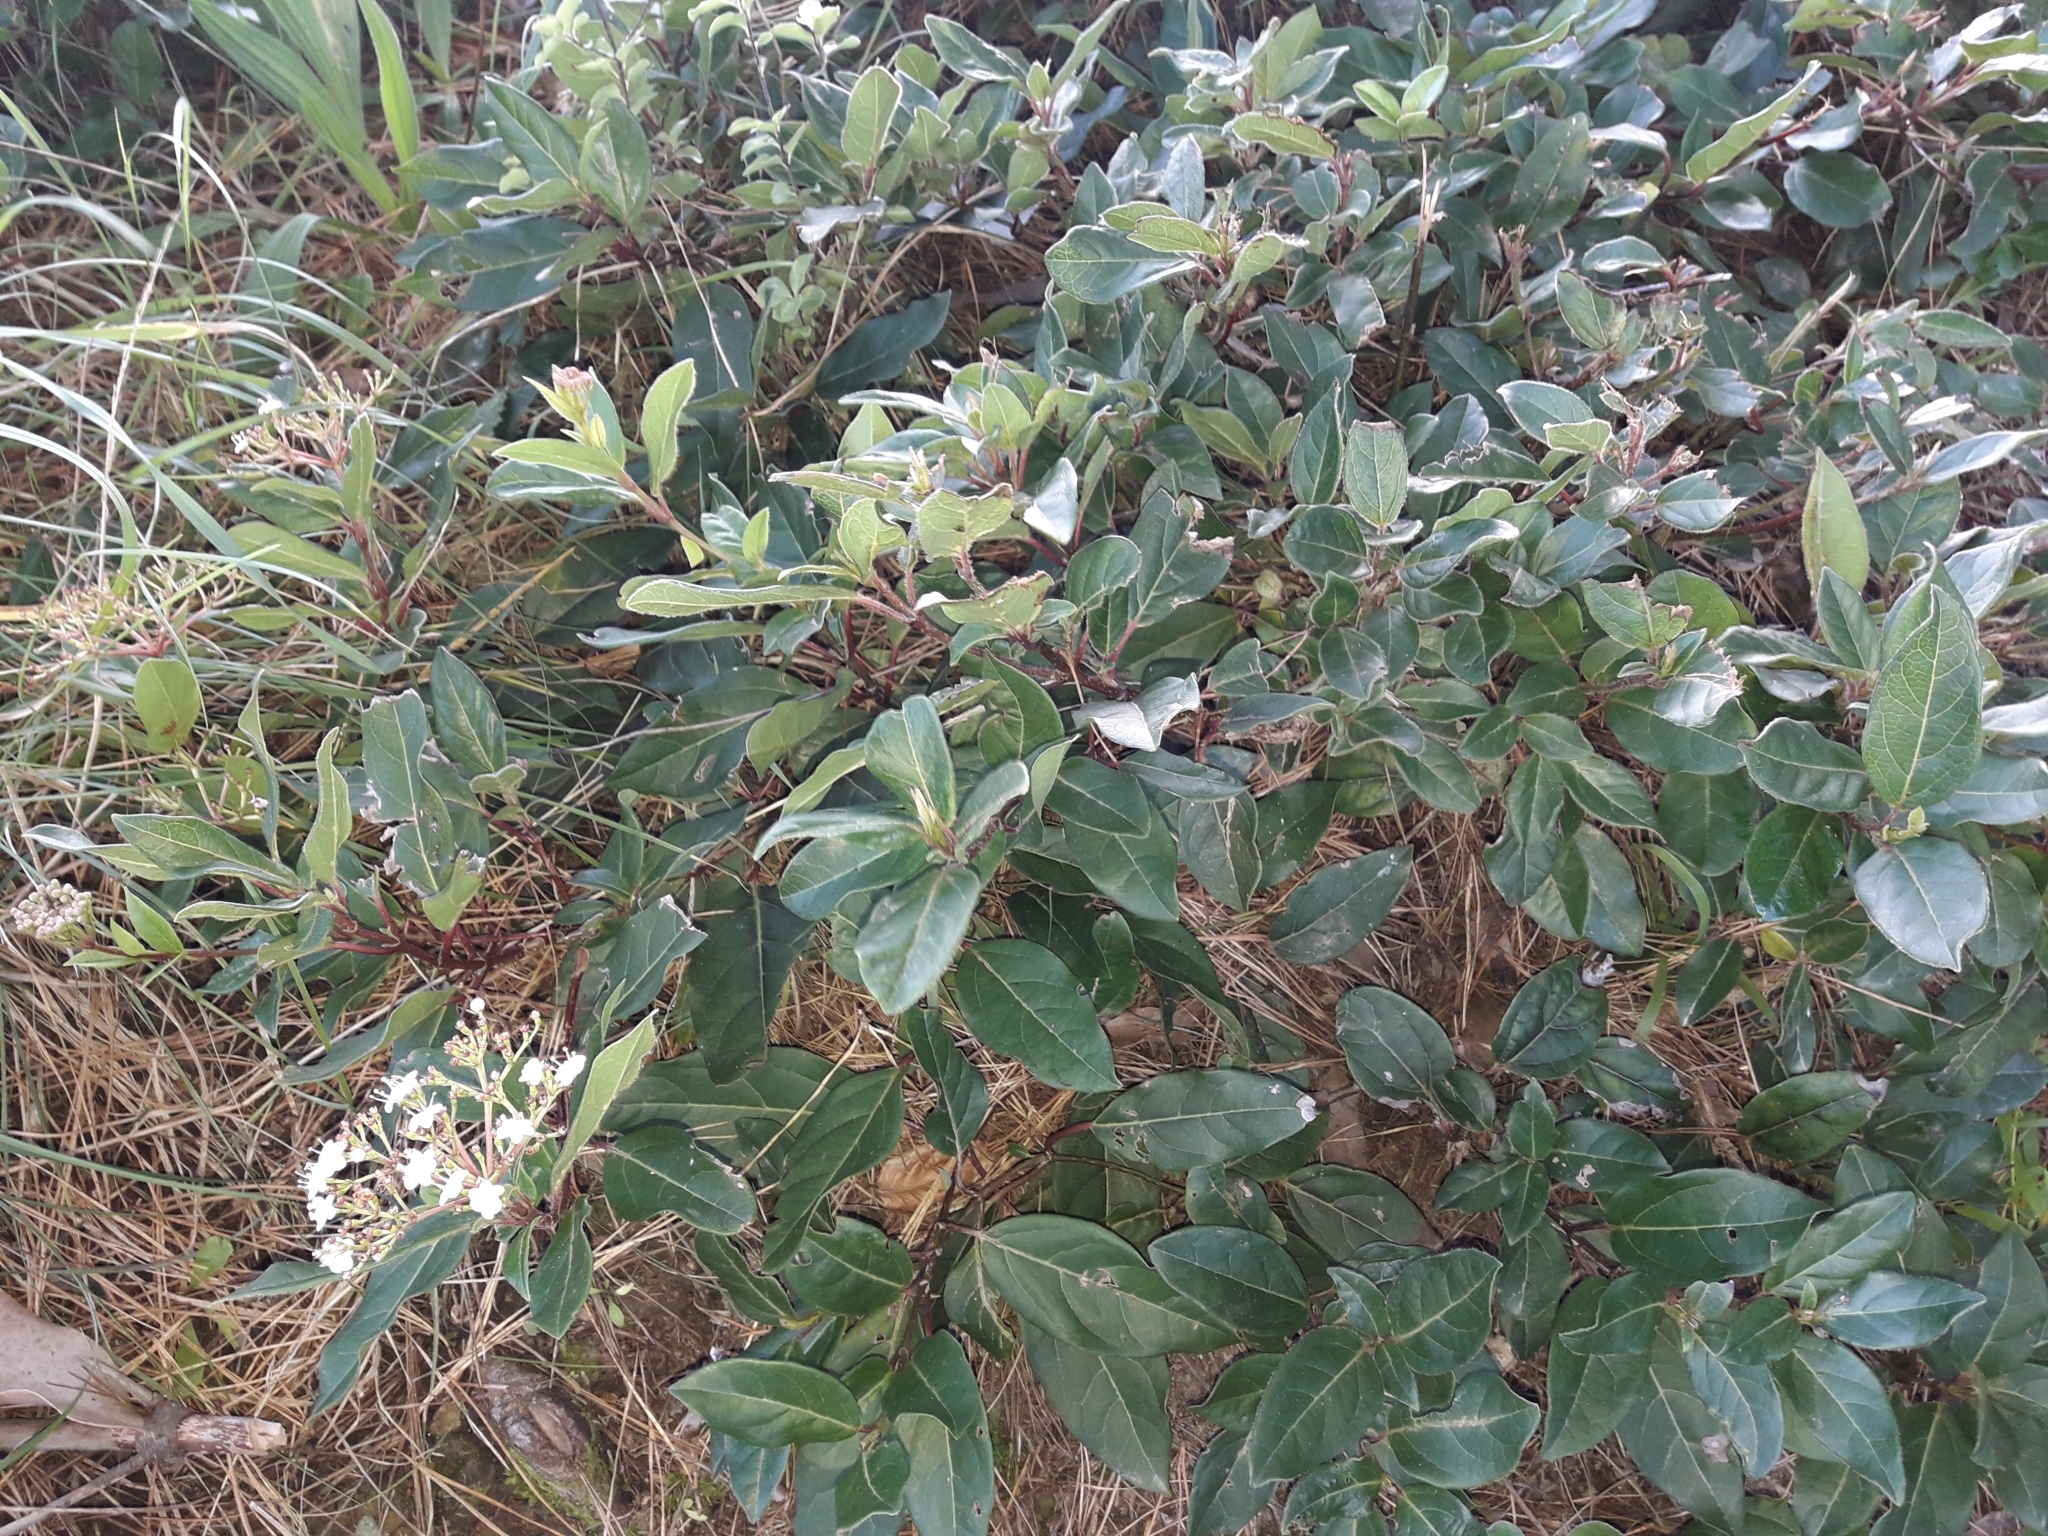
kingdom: Plantae
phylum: Tracheophyta
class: Magnoliopsida
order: Dipsacales
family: Viburnaceae
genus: Viburnum
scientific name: Viburnum tinus
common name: Laurustinus
